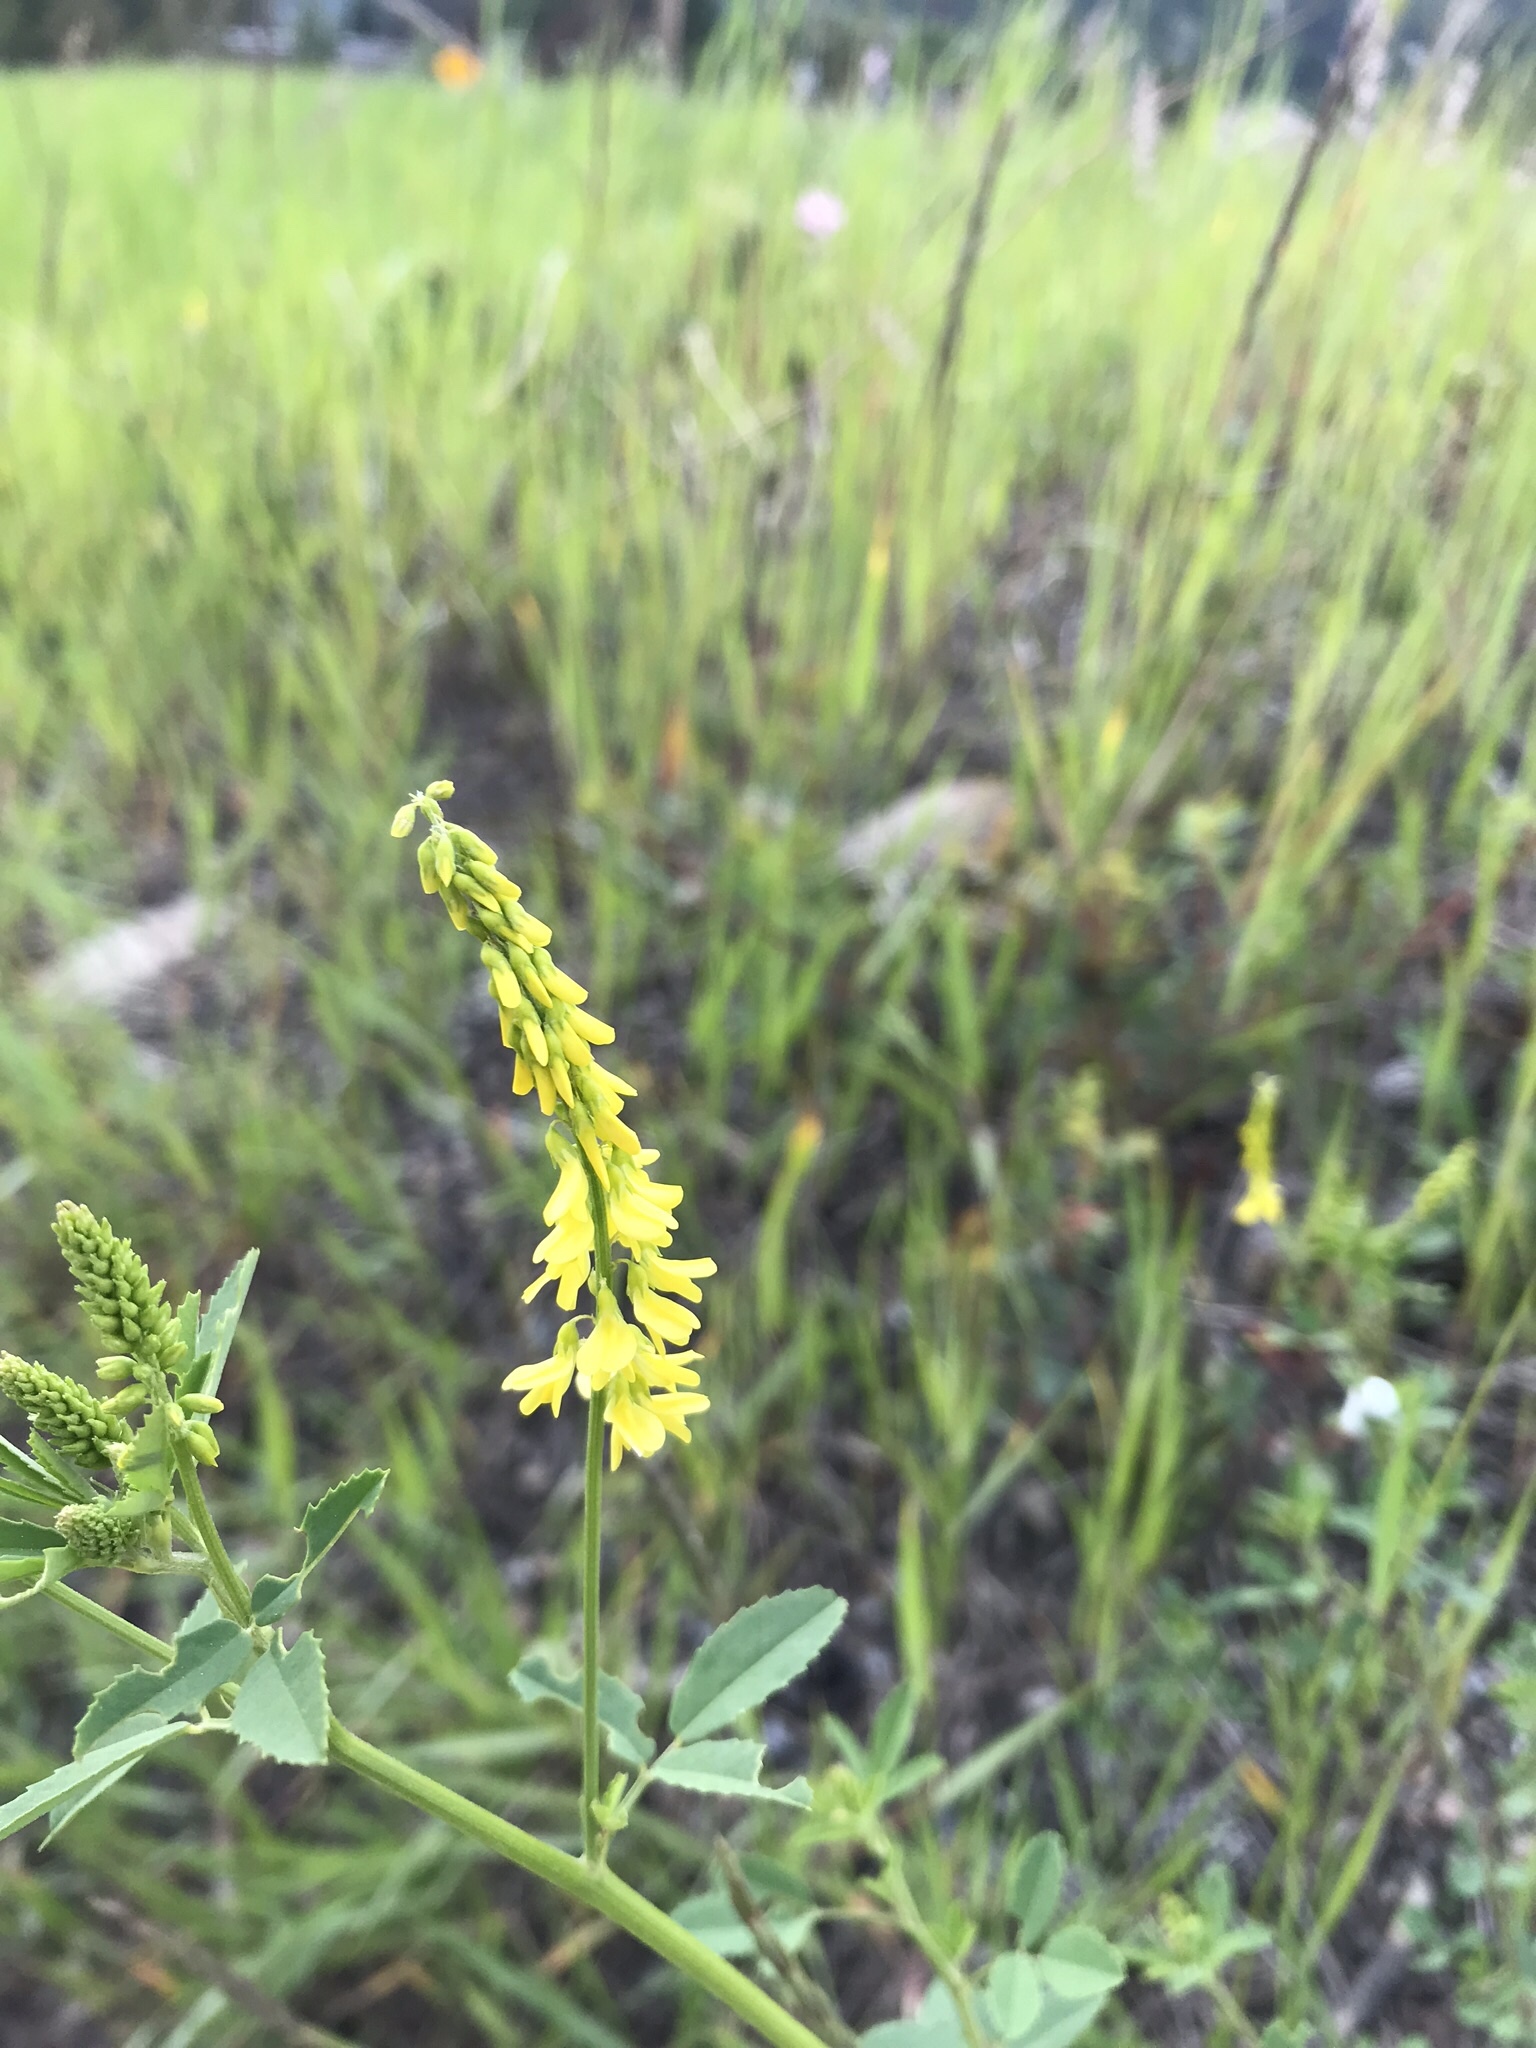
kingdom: Plantae
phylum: Tracheophyta
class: Magnoliopsida
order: Fabales
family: Fabaceae
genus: Melilotus
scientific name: Melilotus officinalis
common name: Sweetclover
